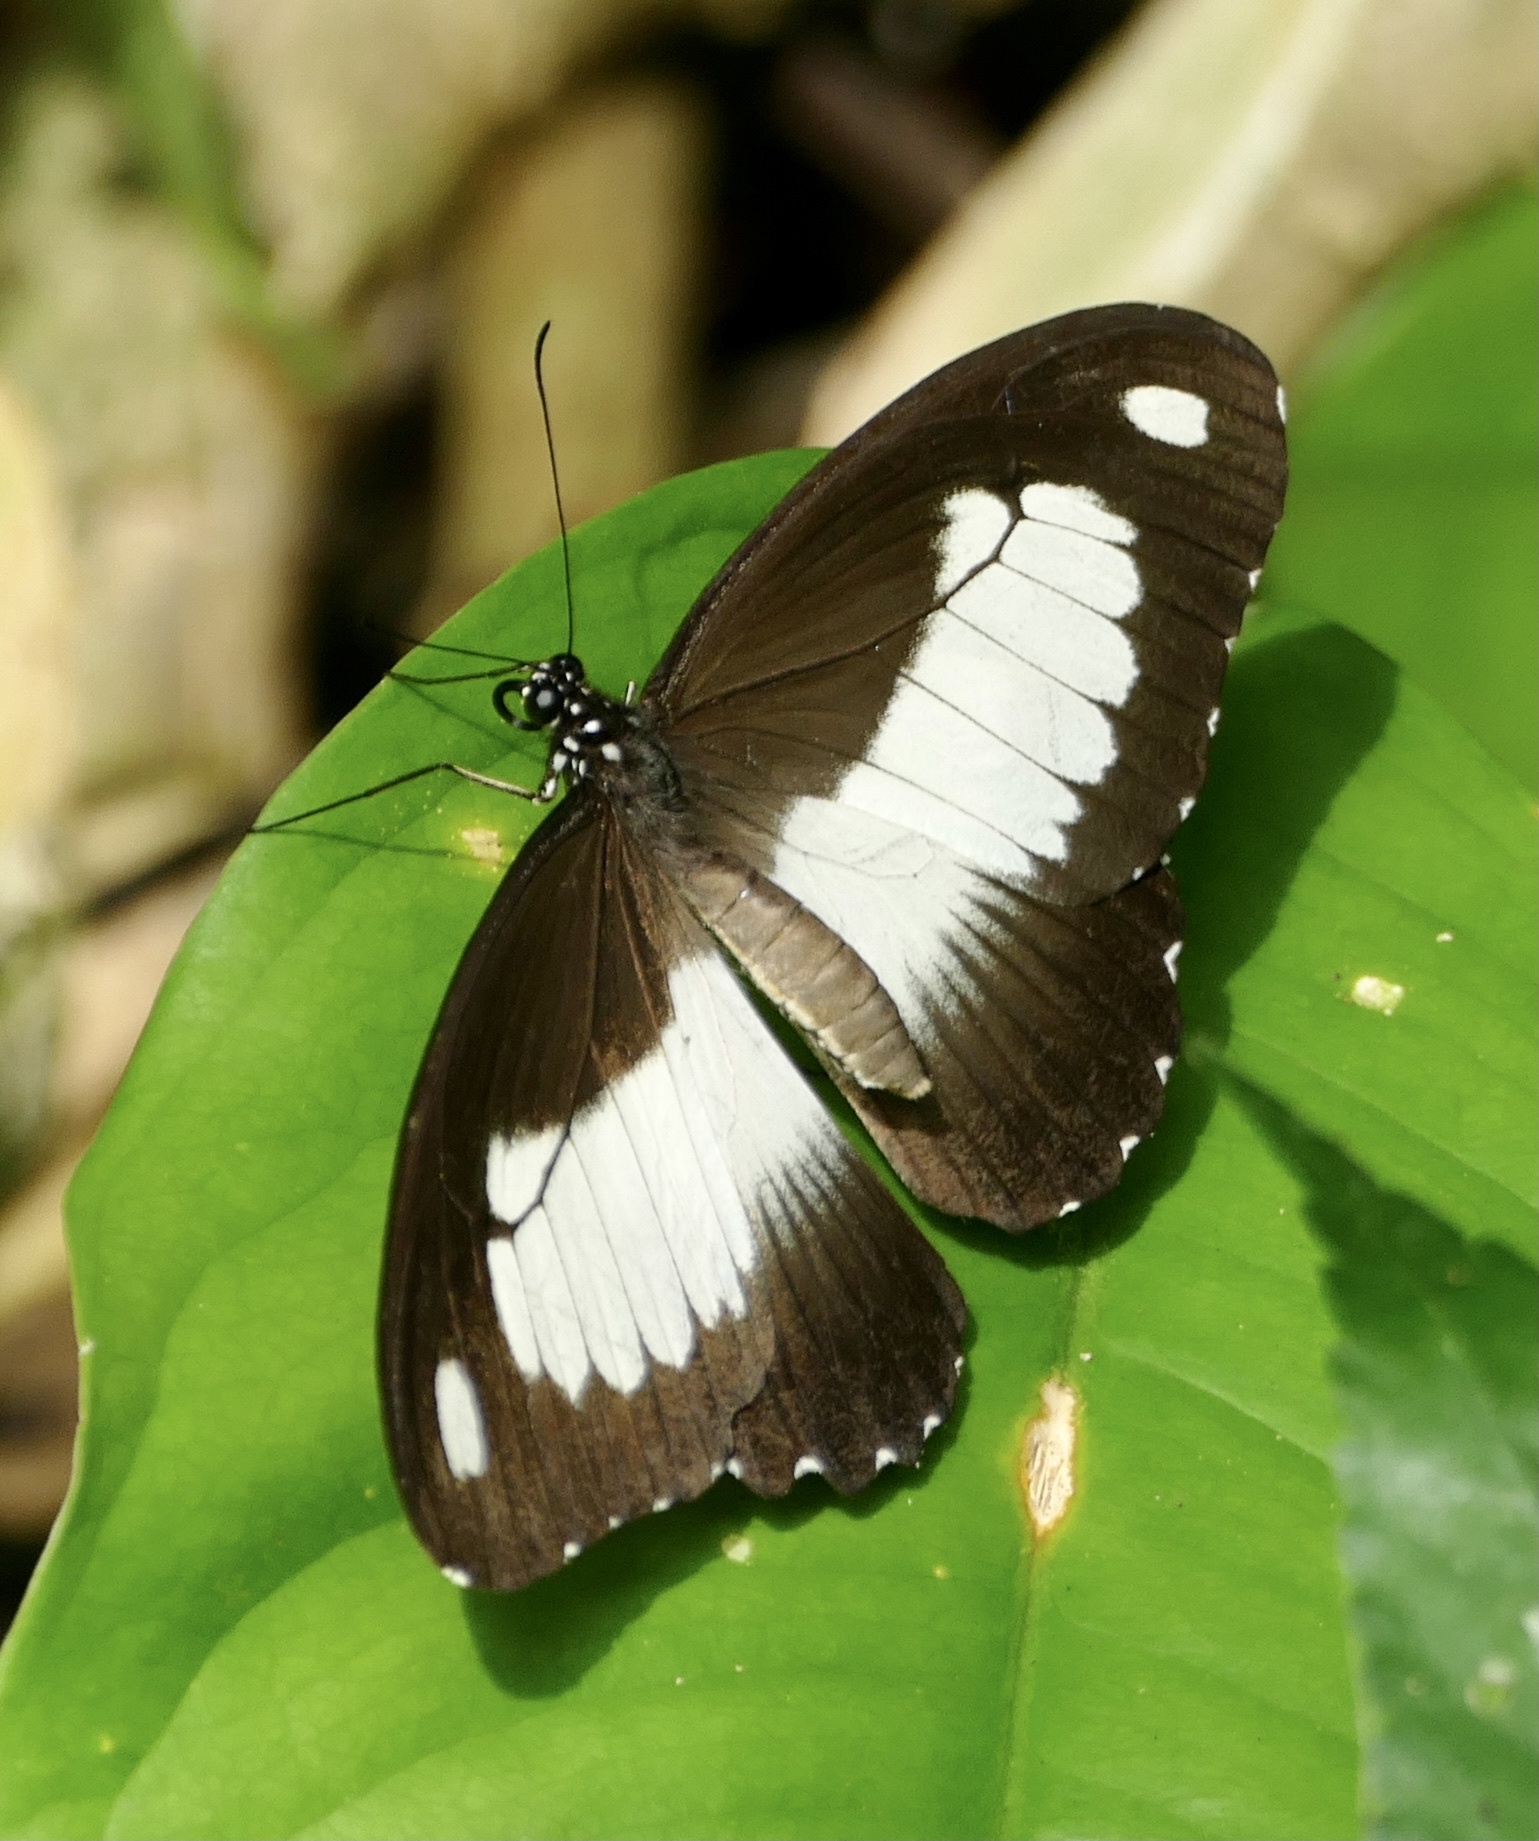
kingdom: Animalia
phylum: Arthropoda
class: Insecta
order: Lepidoptera
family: Papilionidae
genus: Papilio
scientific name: Papilio zenobia
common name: Volta swallowtail
